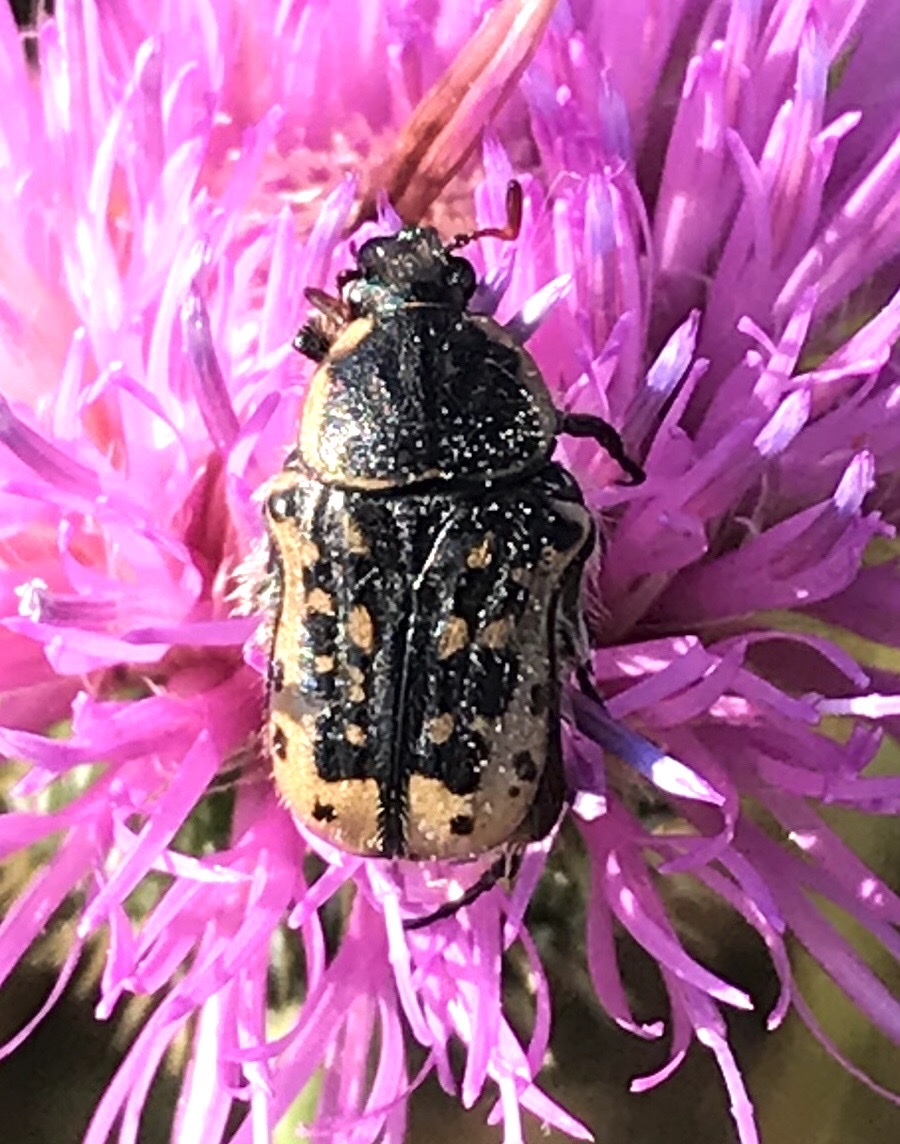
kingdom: Animalia
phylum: Arthropoda
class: Insecta
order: Coleoptera
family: Scarabaeidae
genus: Euphoria
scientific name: Euphoria kernii
